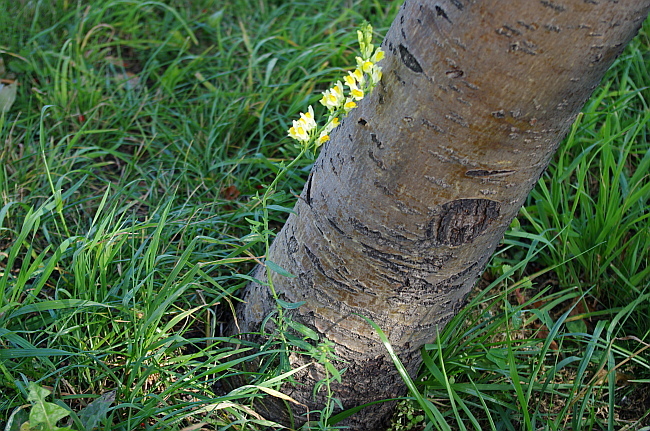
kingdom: Plantae
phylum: Tracheophyta
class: Magnoliopsida
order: Lamiales
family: Plantaginaceae
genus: Linaria
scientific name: Linaria vulgaris
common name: Butter and eggs
